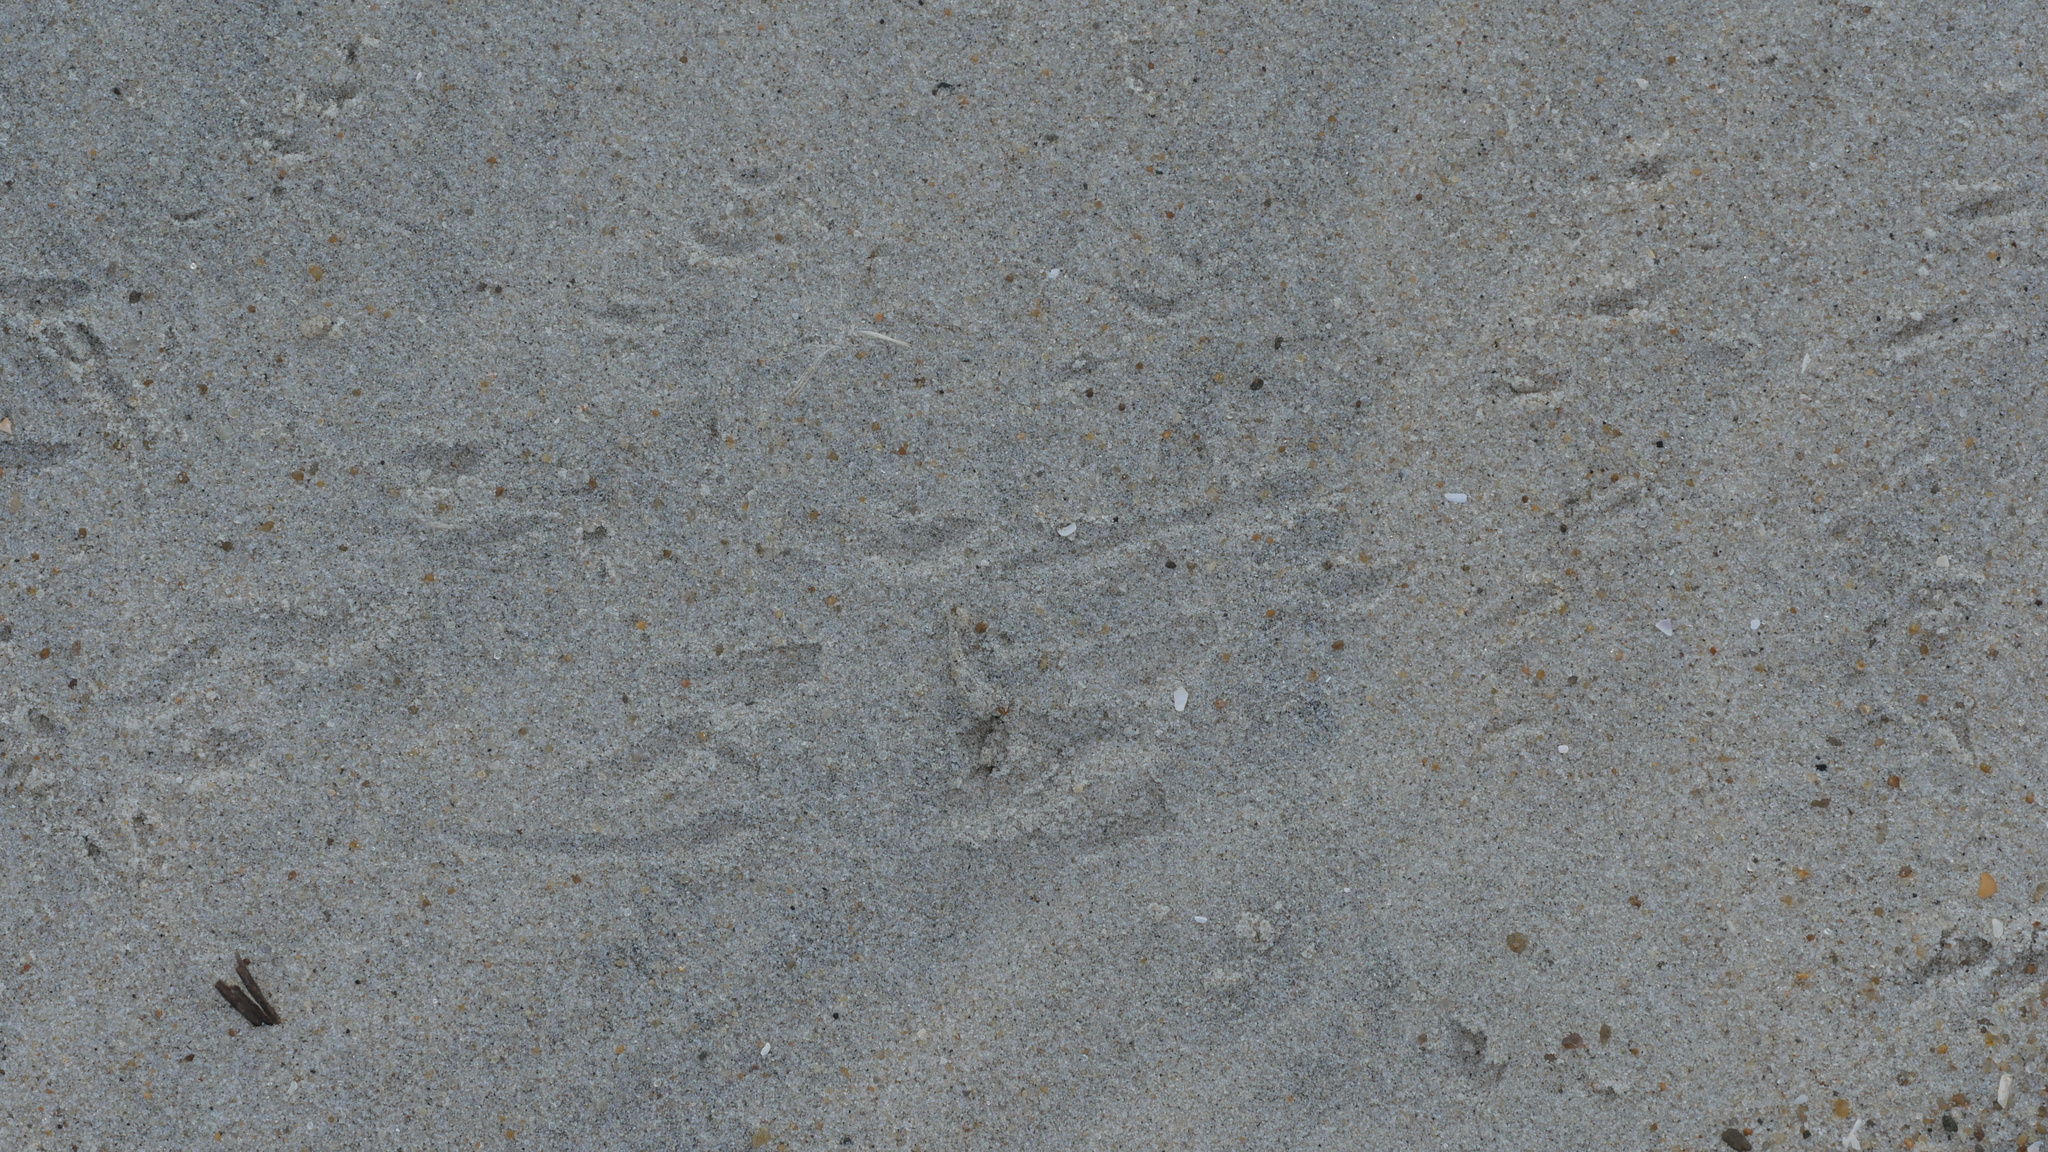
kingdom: Animalia
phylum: Arthropoda
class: Malacostraca
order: Decapoda
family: Ocypodidae
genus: Ocypode
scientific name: Ocypode quadrata
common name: Ghost crab
